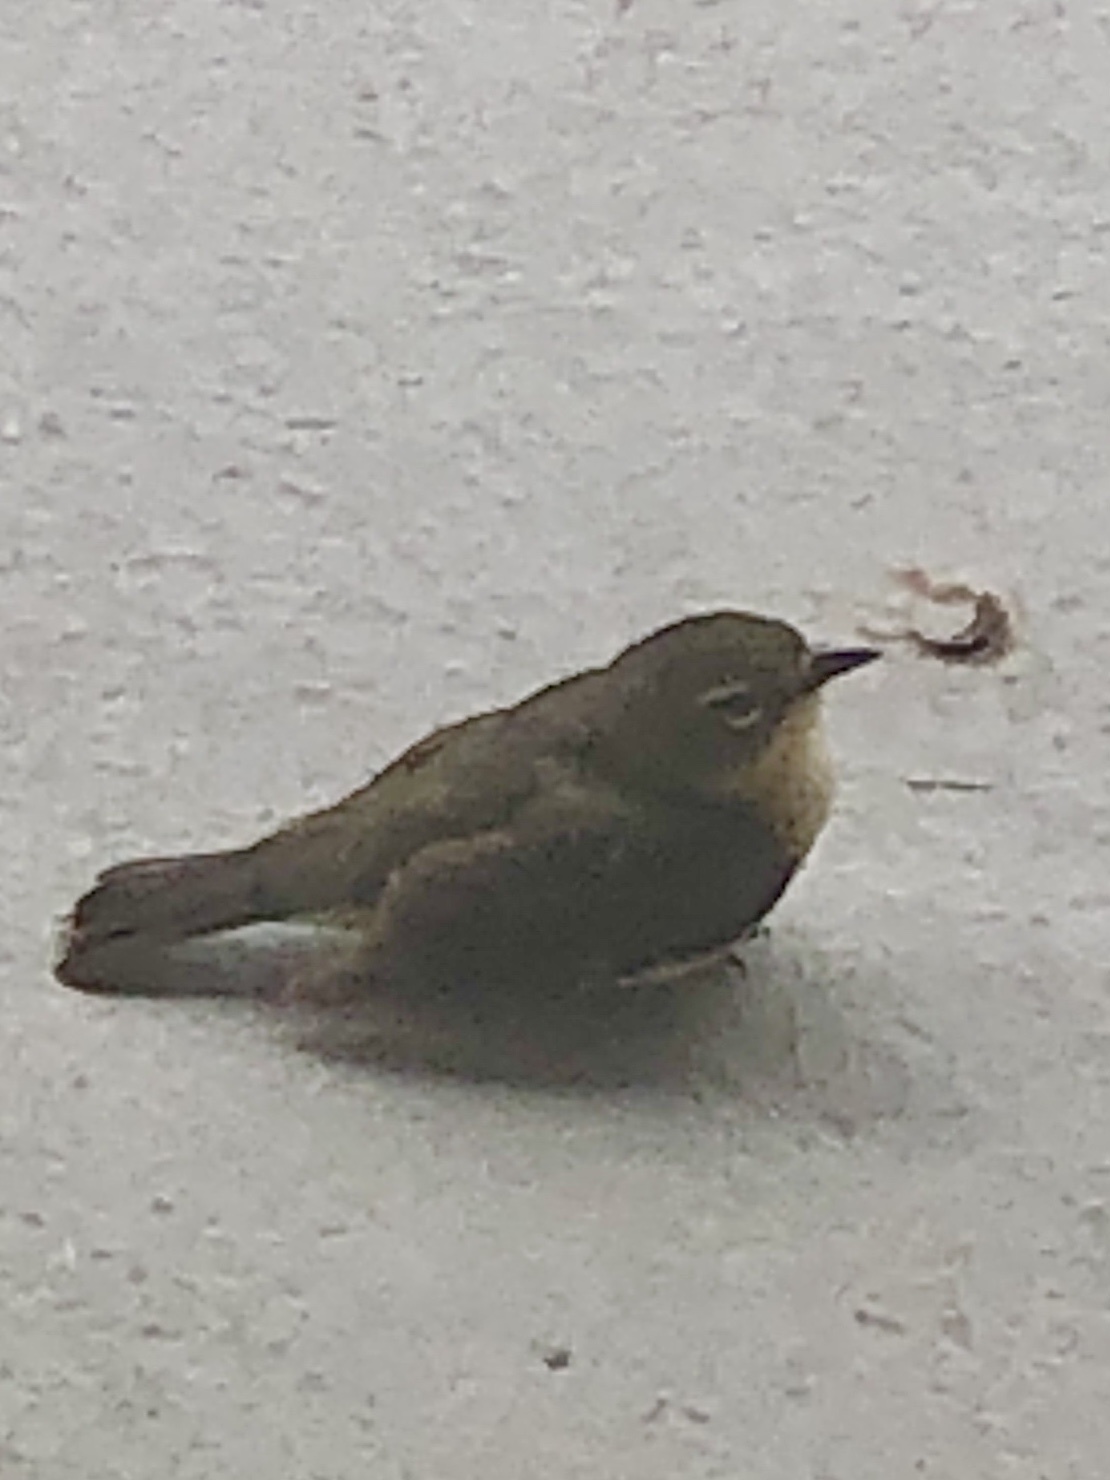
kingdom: Animalia
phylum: Chordata
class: Aves
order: Passeriformes
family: Parulidae
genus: Setophaga
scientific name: Setophaga caerulescens
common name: Black-throated blue warbler
